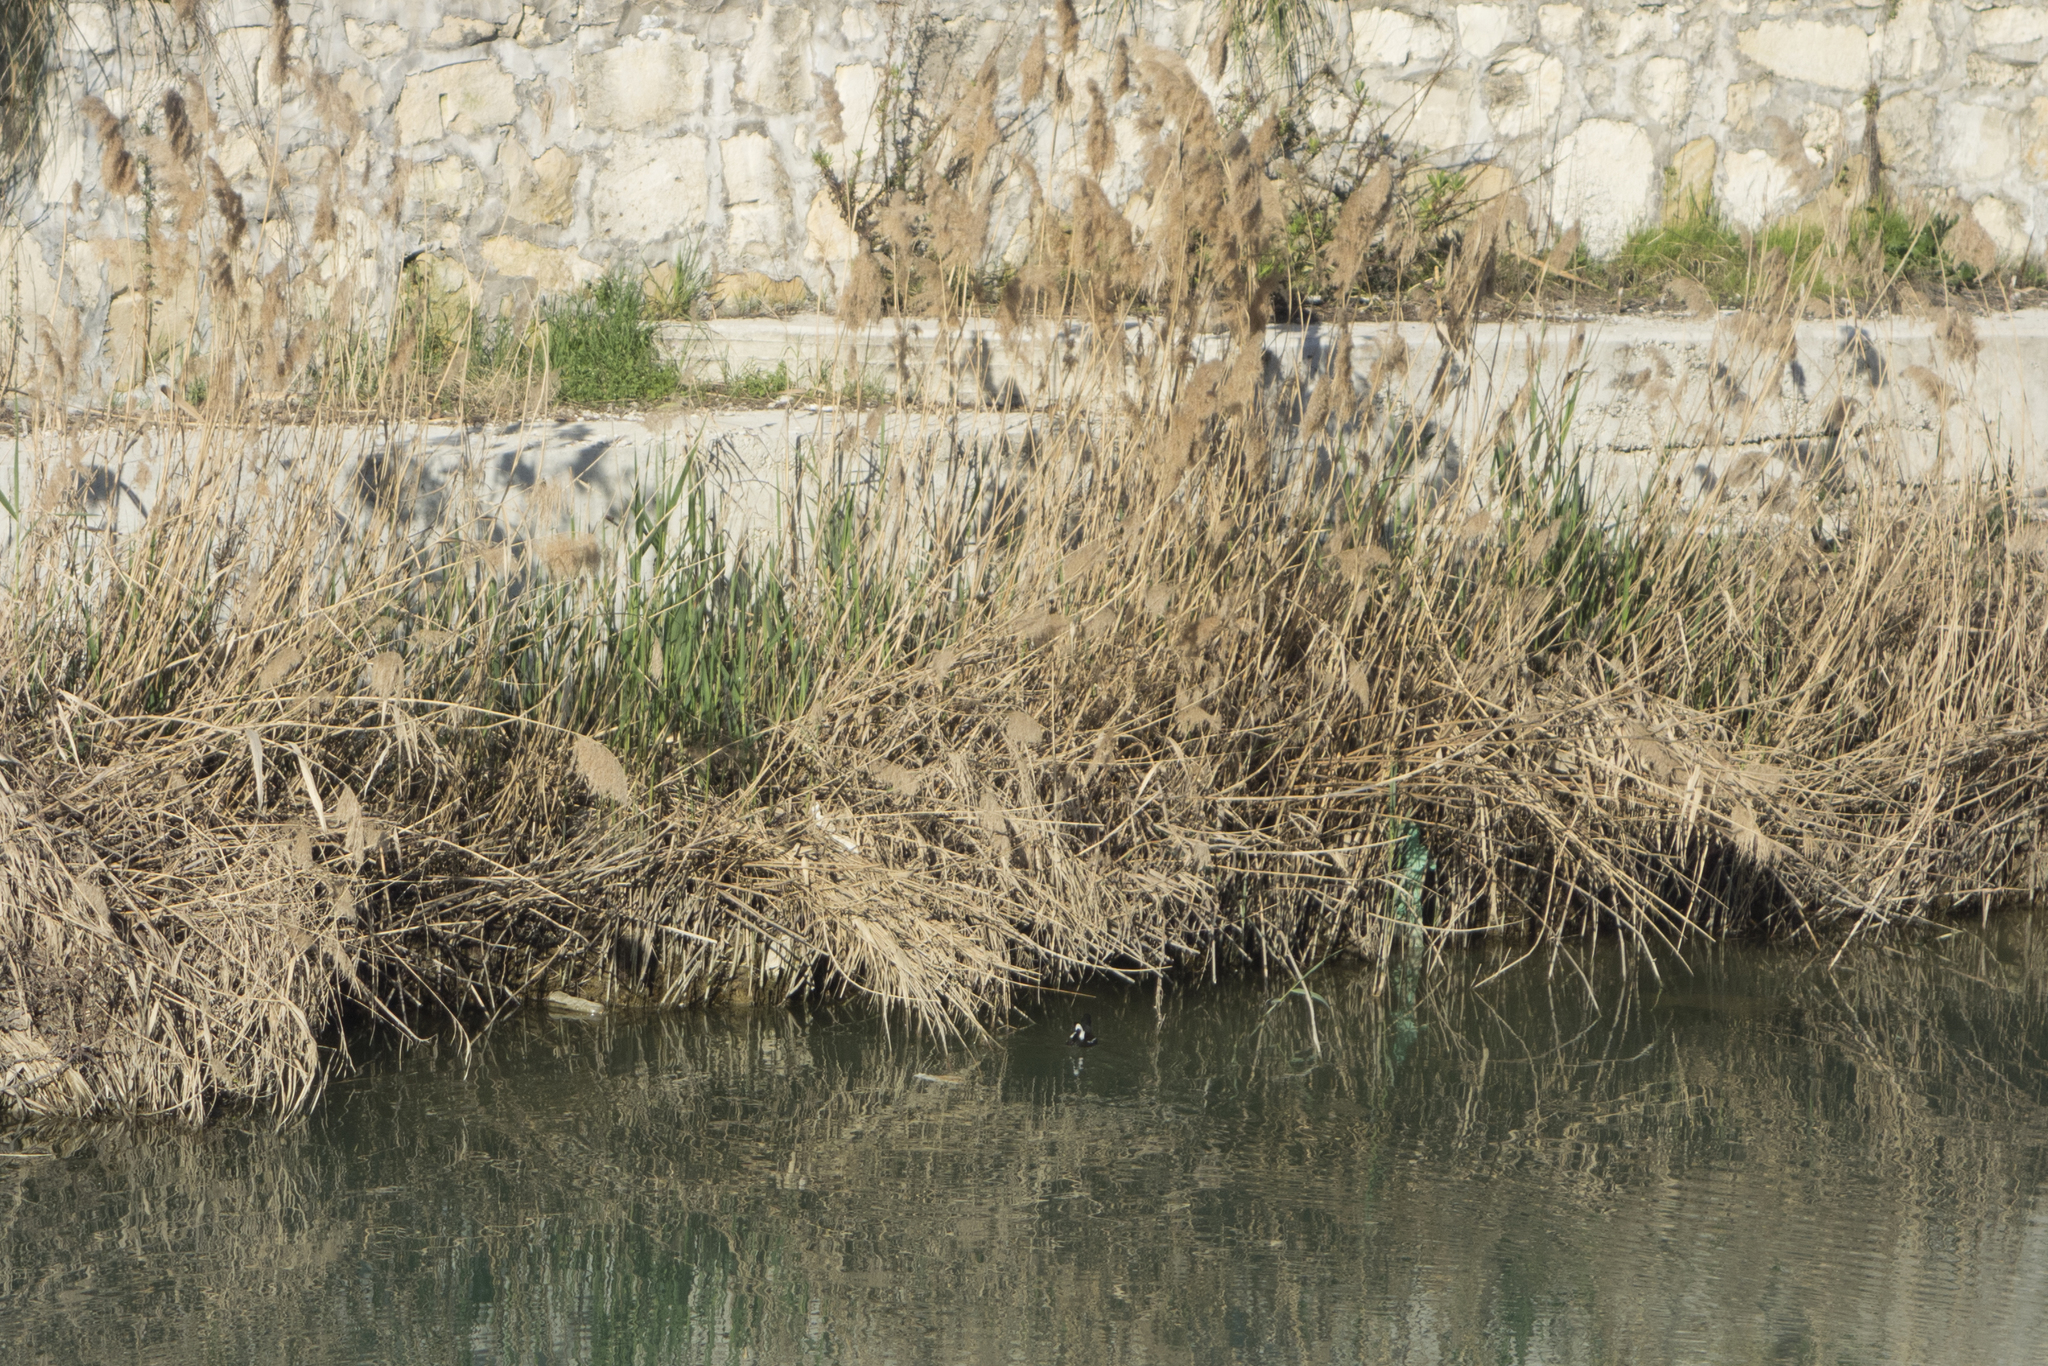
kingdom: Animalia
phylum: Chordata
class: Aves
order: Gruiformes
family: Rallidae
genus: Gallinula
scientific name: Gallinula chloropus
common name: Common moorhen
